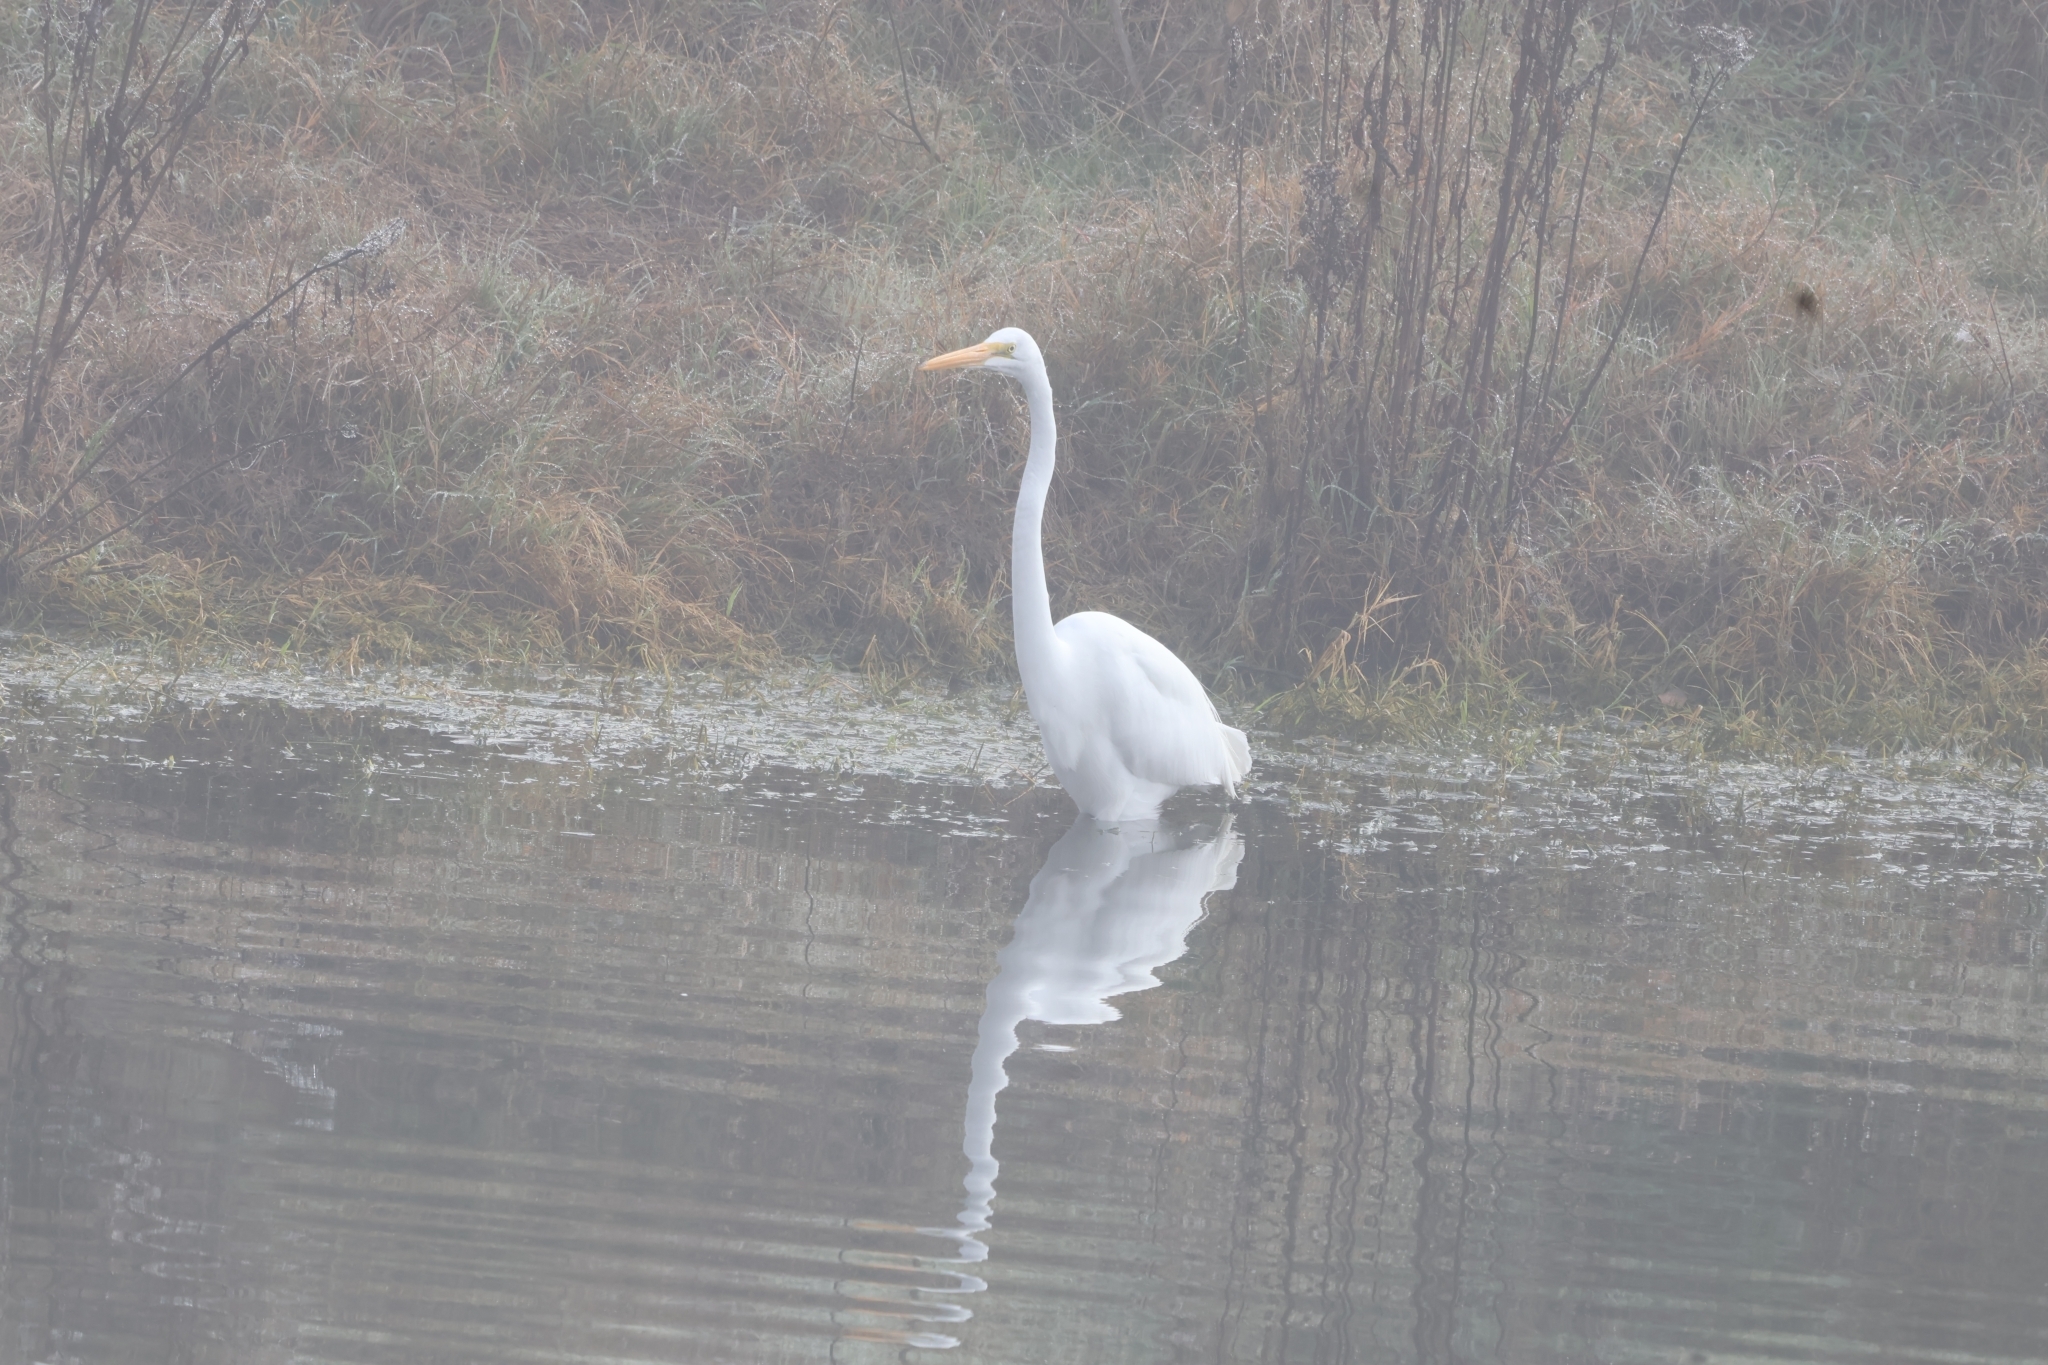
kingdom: Animalia
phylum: Chordata
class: Aves
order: Pelecaniformes
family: Ardeidae
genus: Ardea
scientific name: Ardea alba
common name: Great egret
